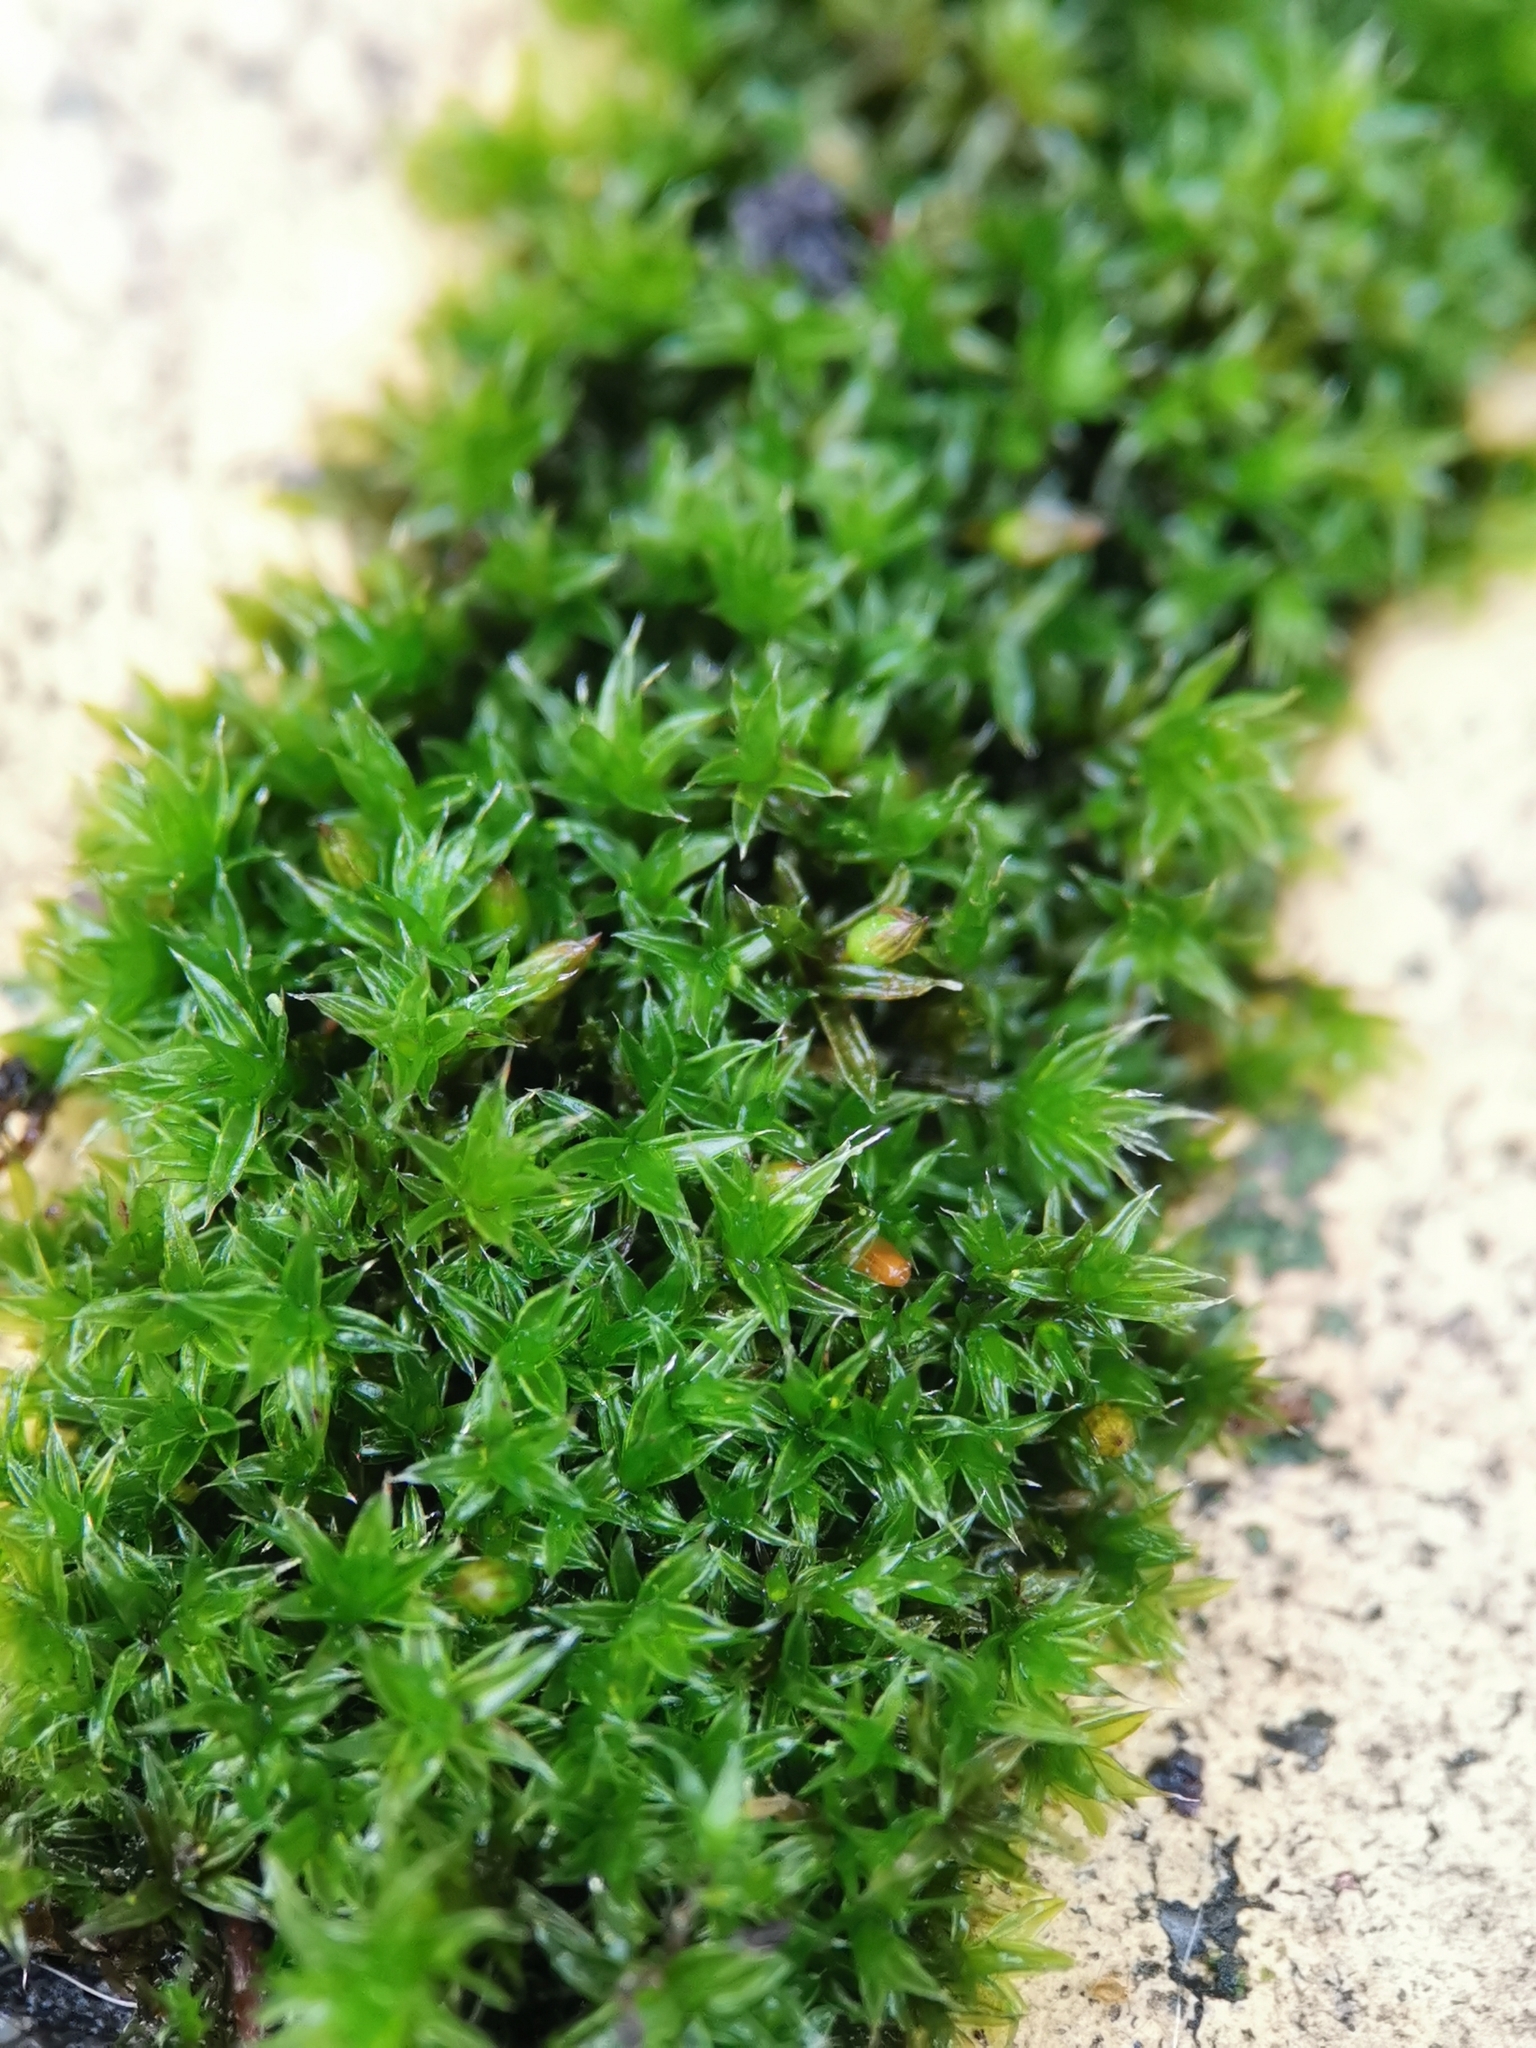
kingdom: Plantae
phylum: Bryophyta
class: Bryopsida
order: Orthotrichales
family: Orthotrichaceae
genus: Orthotrichum
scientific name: Orthotrichum diaphanum
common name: White-tipped bristle-moss
